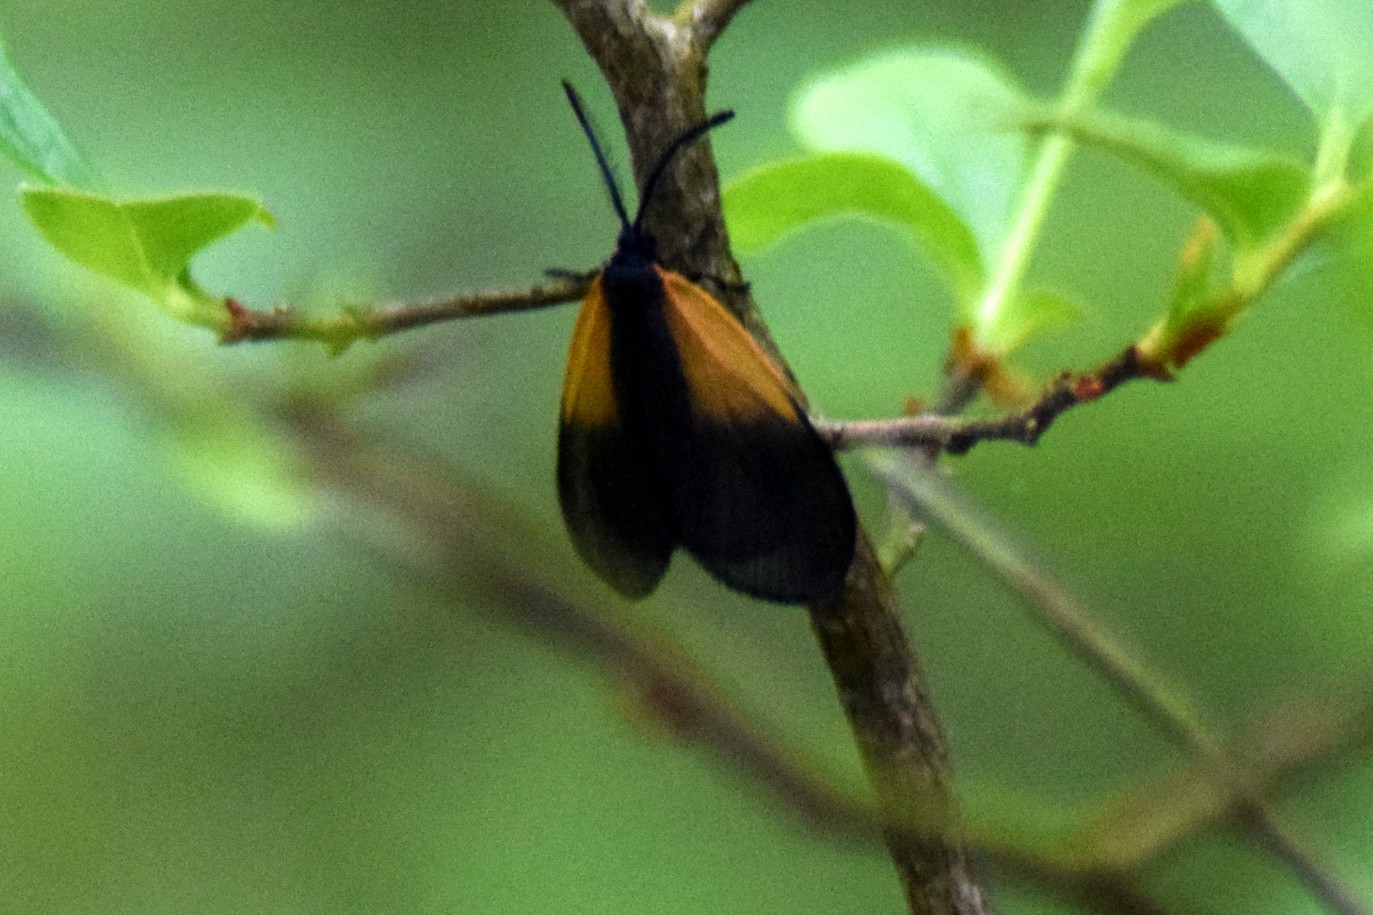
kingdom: Animalia
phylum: Arthropoda
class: Insecta
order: Lepidoptera
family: Zygaenidae
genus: Malthaca
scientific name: Malthaca dimidiata
